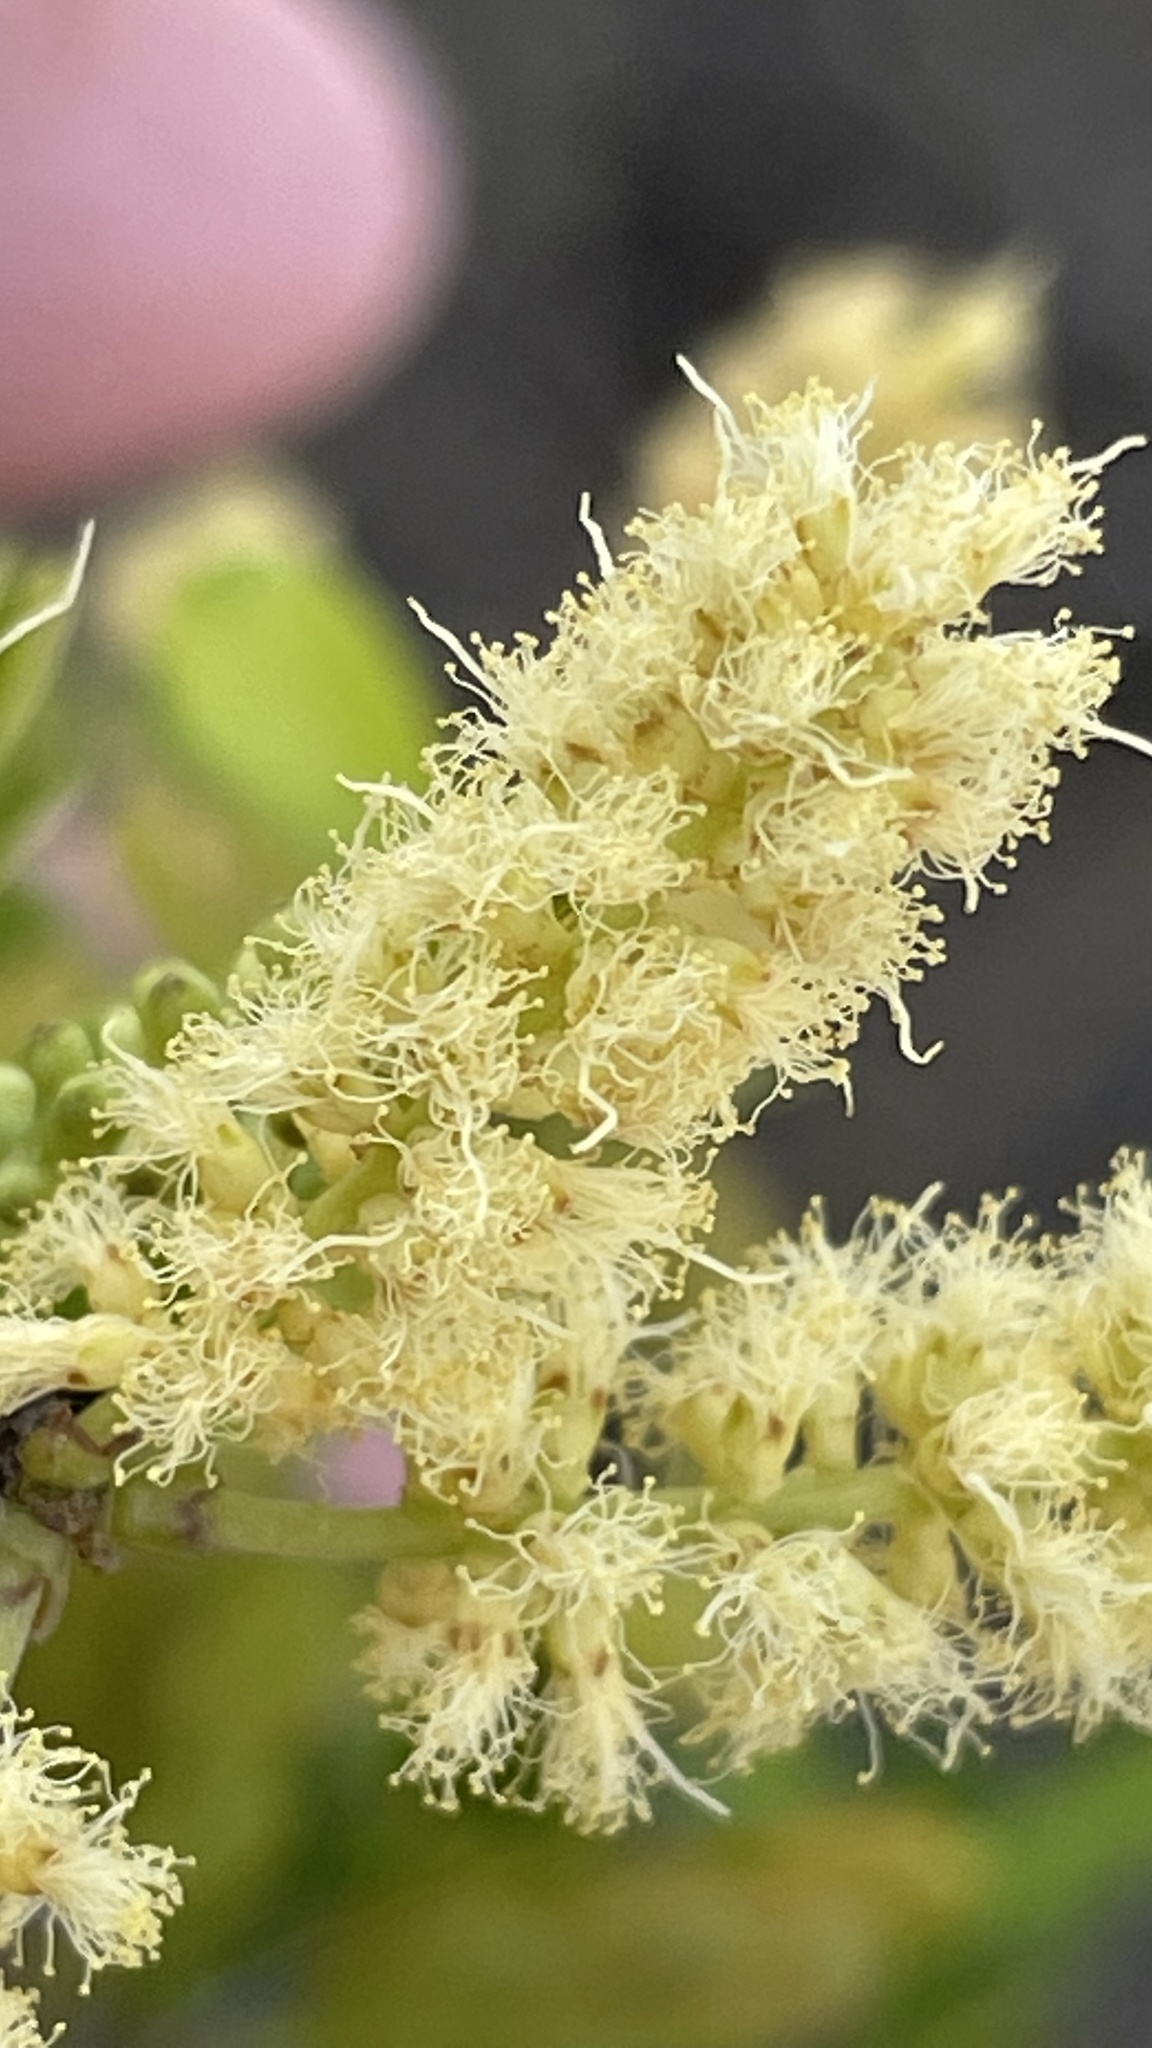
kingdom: Plantae
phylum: Tracheophyta
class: Magnoliopsida
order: Fabales
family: Fabaceae
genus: Vachellia
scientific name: Vachellia rigidula
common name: Blackbrush
